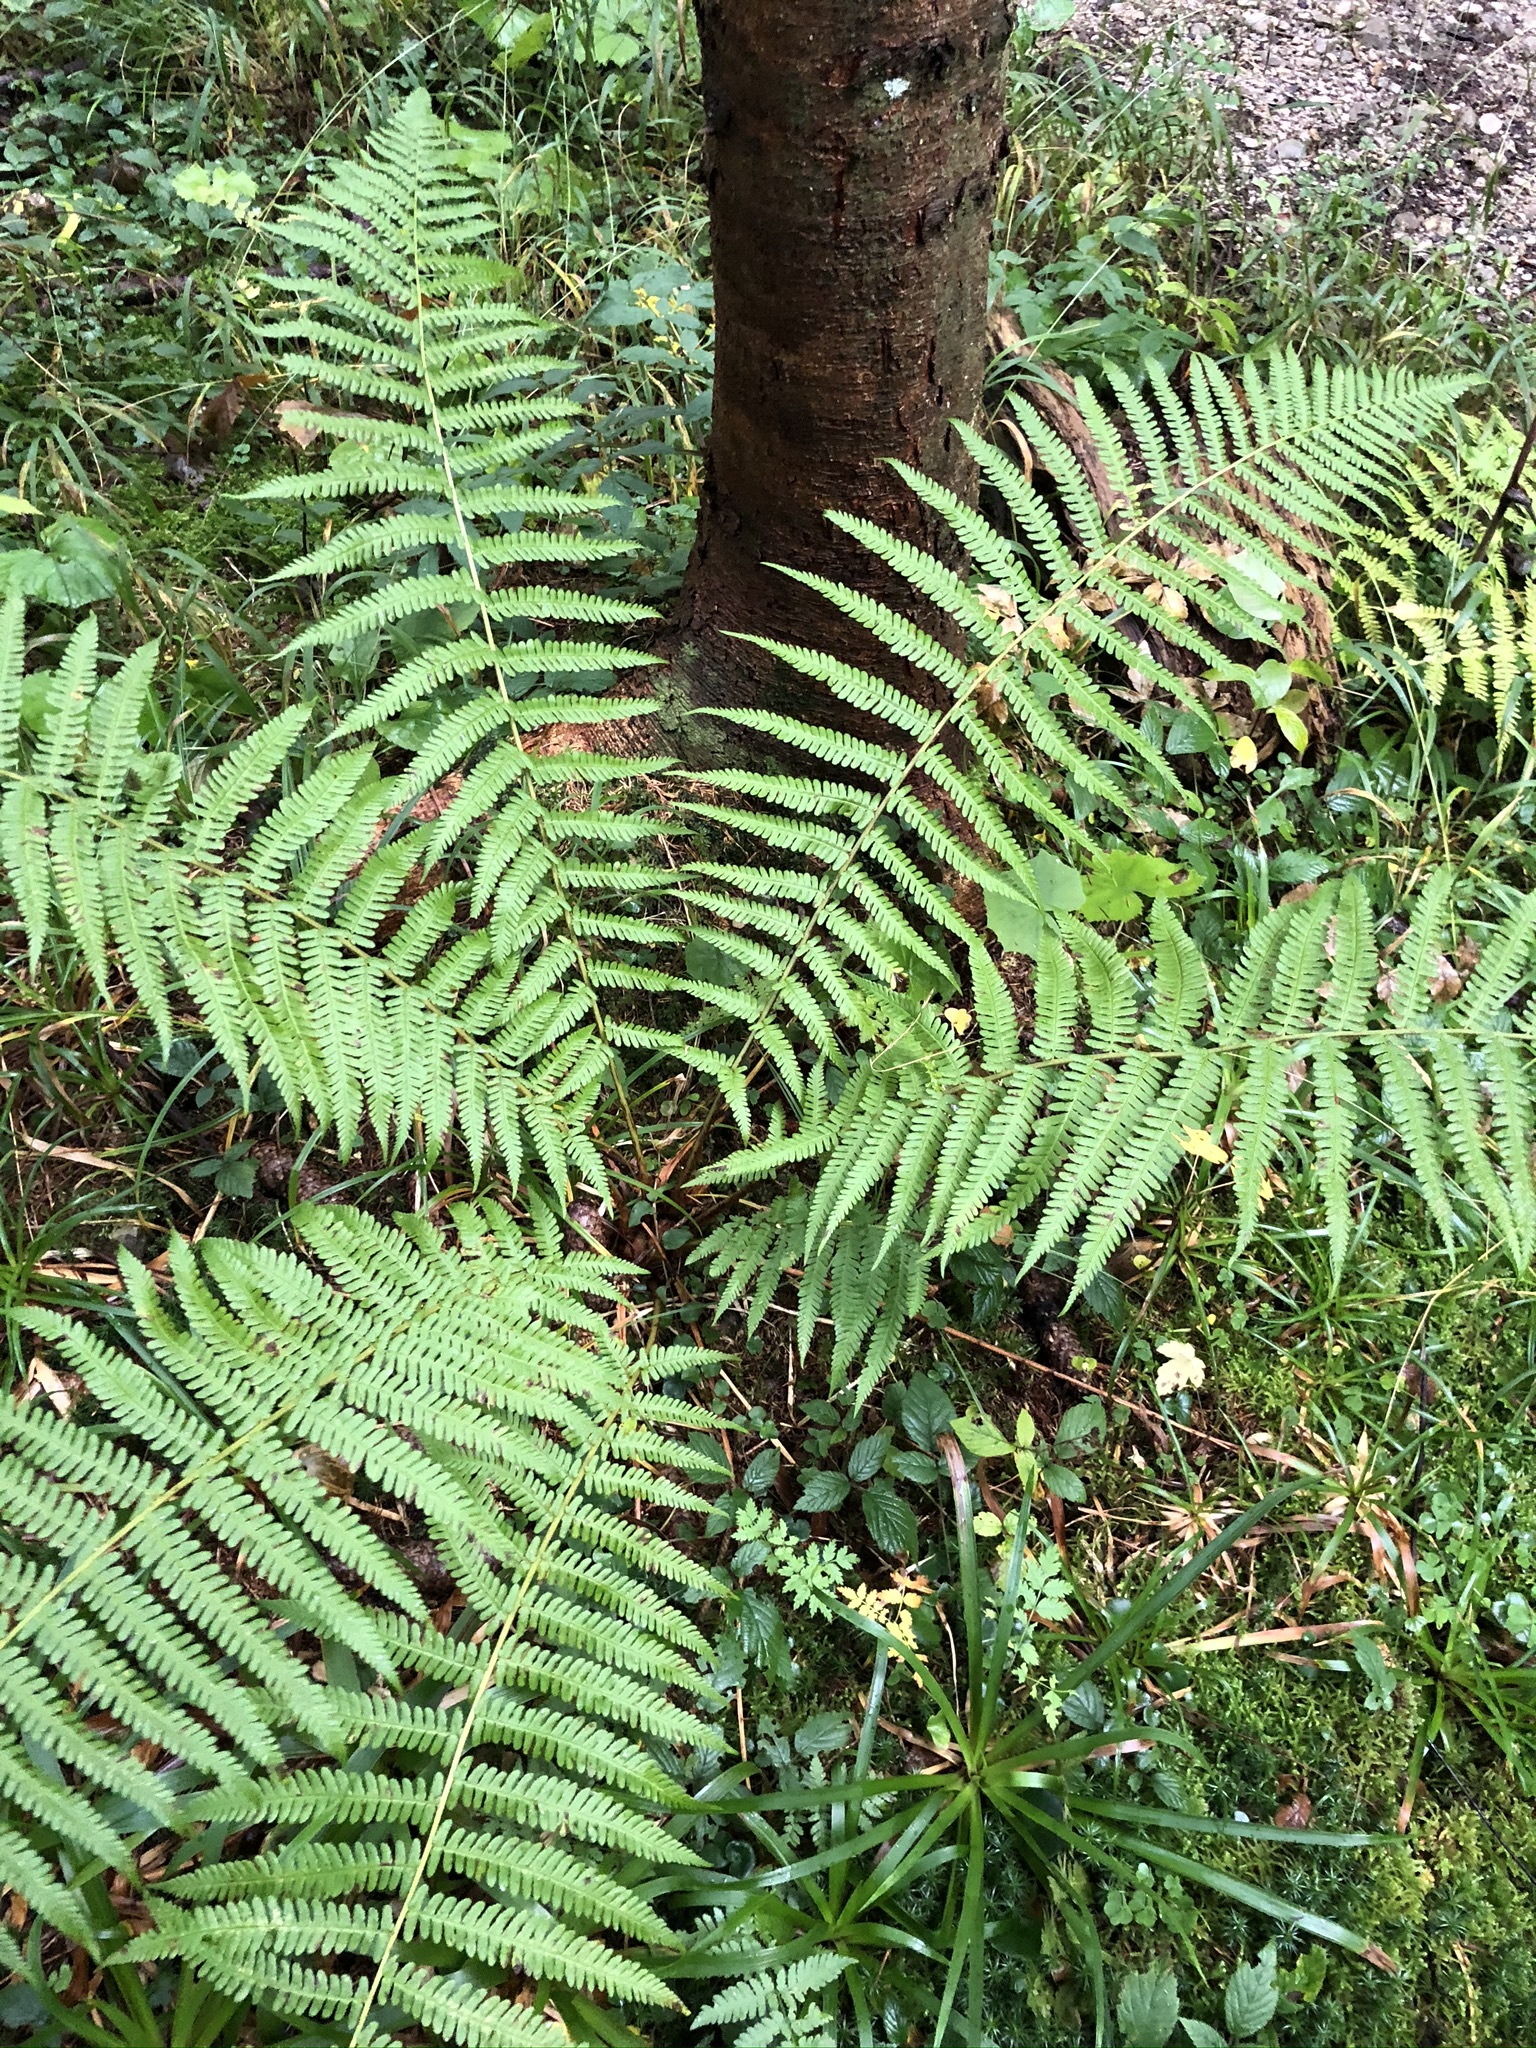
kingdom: Plantae
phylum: Tracheophyta
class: Polypodiopsida
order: Polypodiales
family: Dryopteridaceae
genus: Dryopteris
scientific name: Dryopteris filix-mas
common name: Male fern
